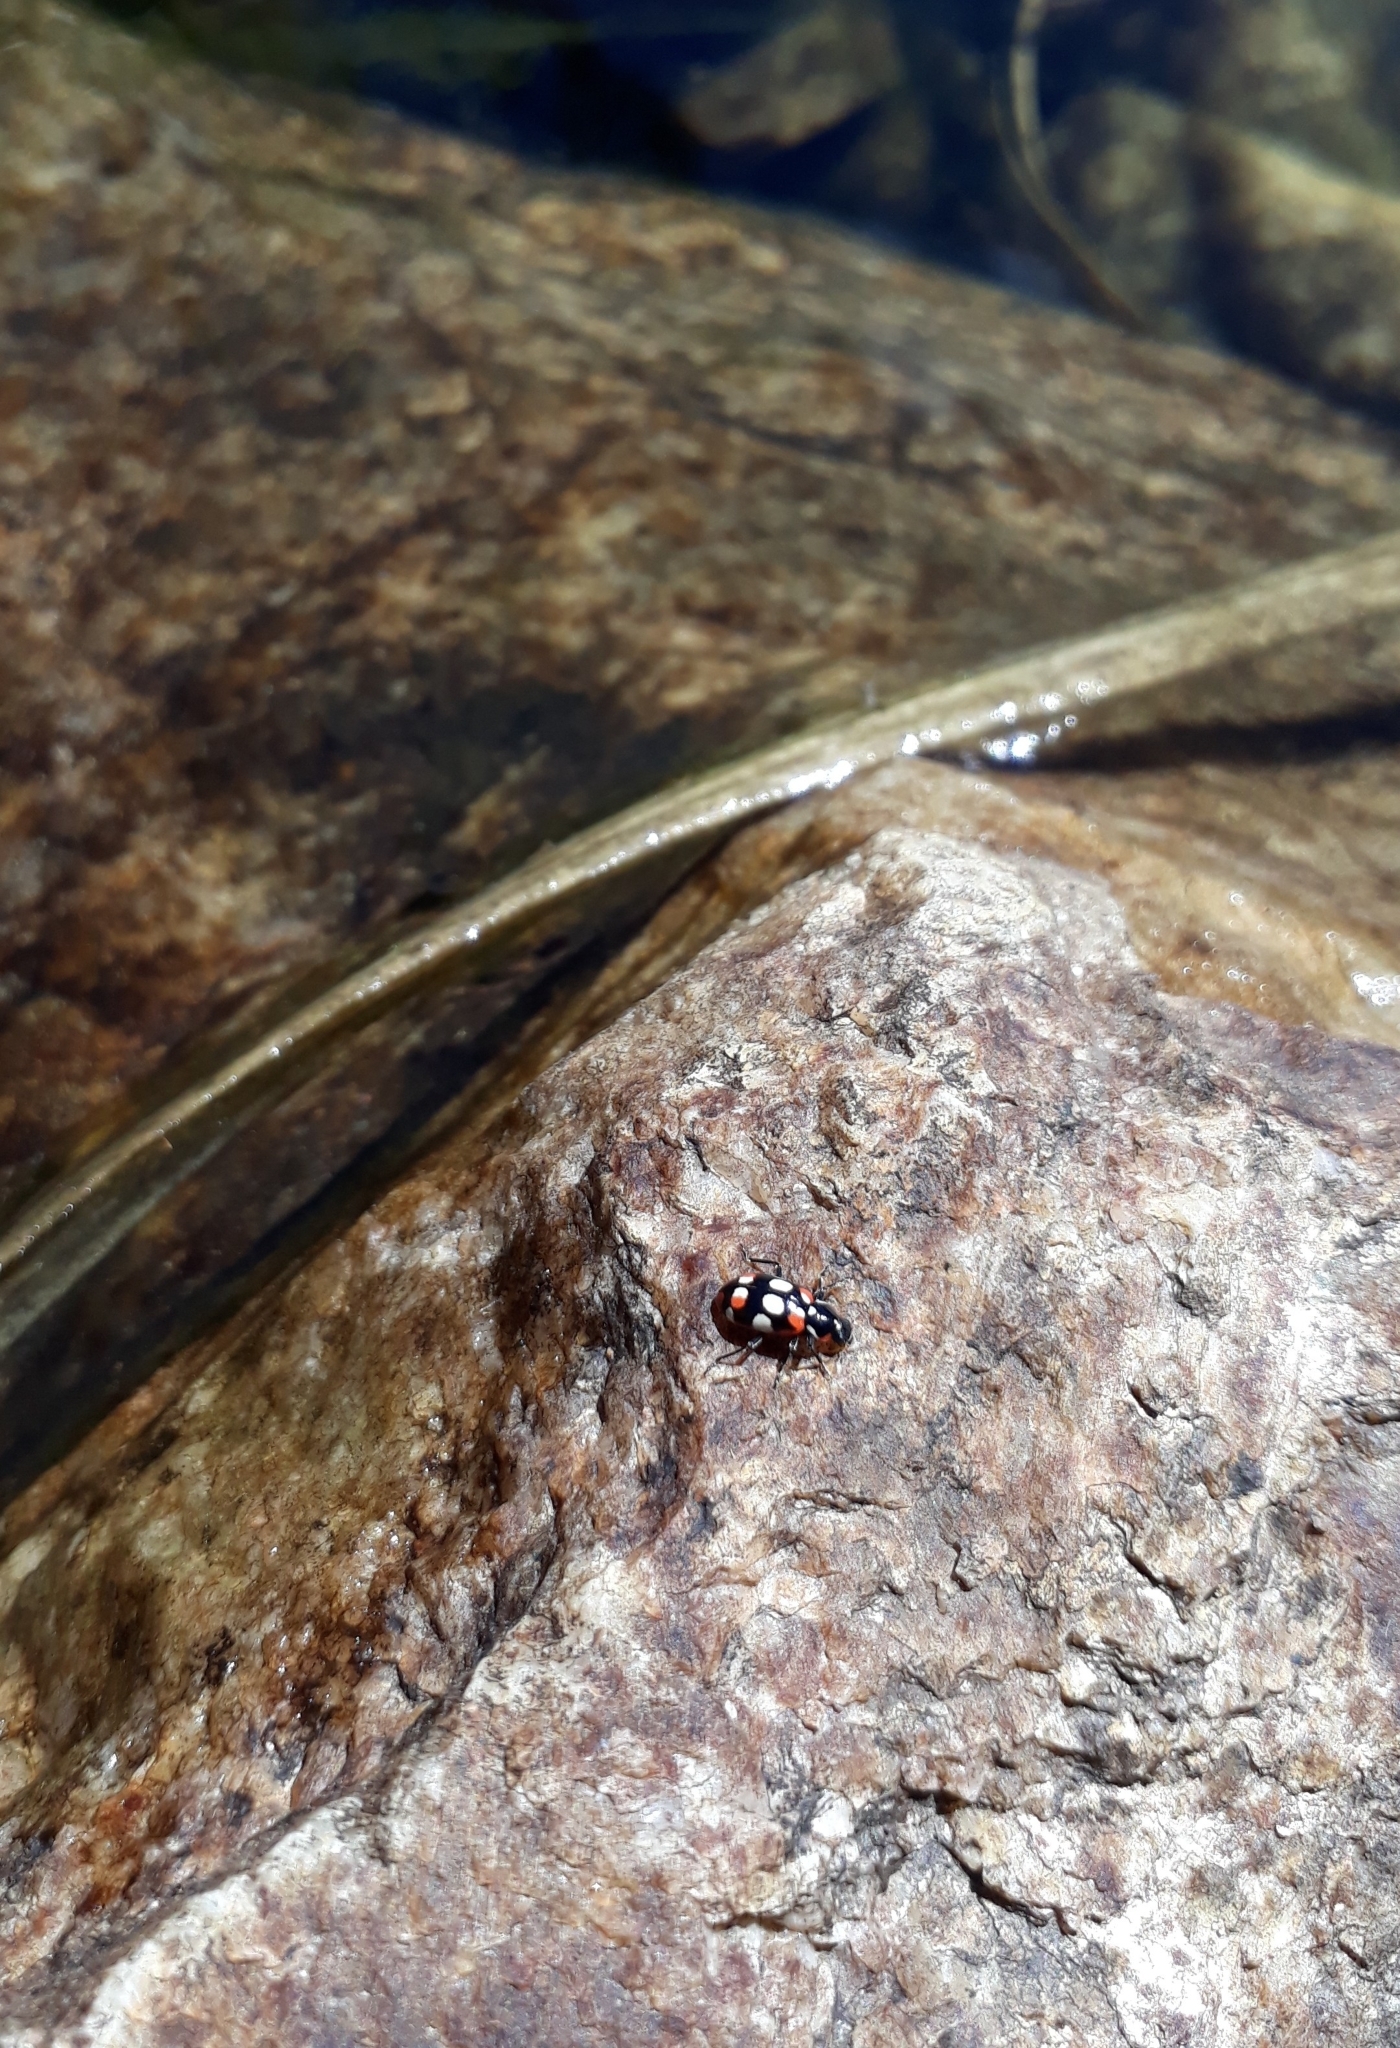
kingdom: Animalia
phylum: Arthropoda
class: Insecta
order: Coleoptera
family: Coccinellidae
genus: Eriopis
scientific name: Eriopis connexa
